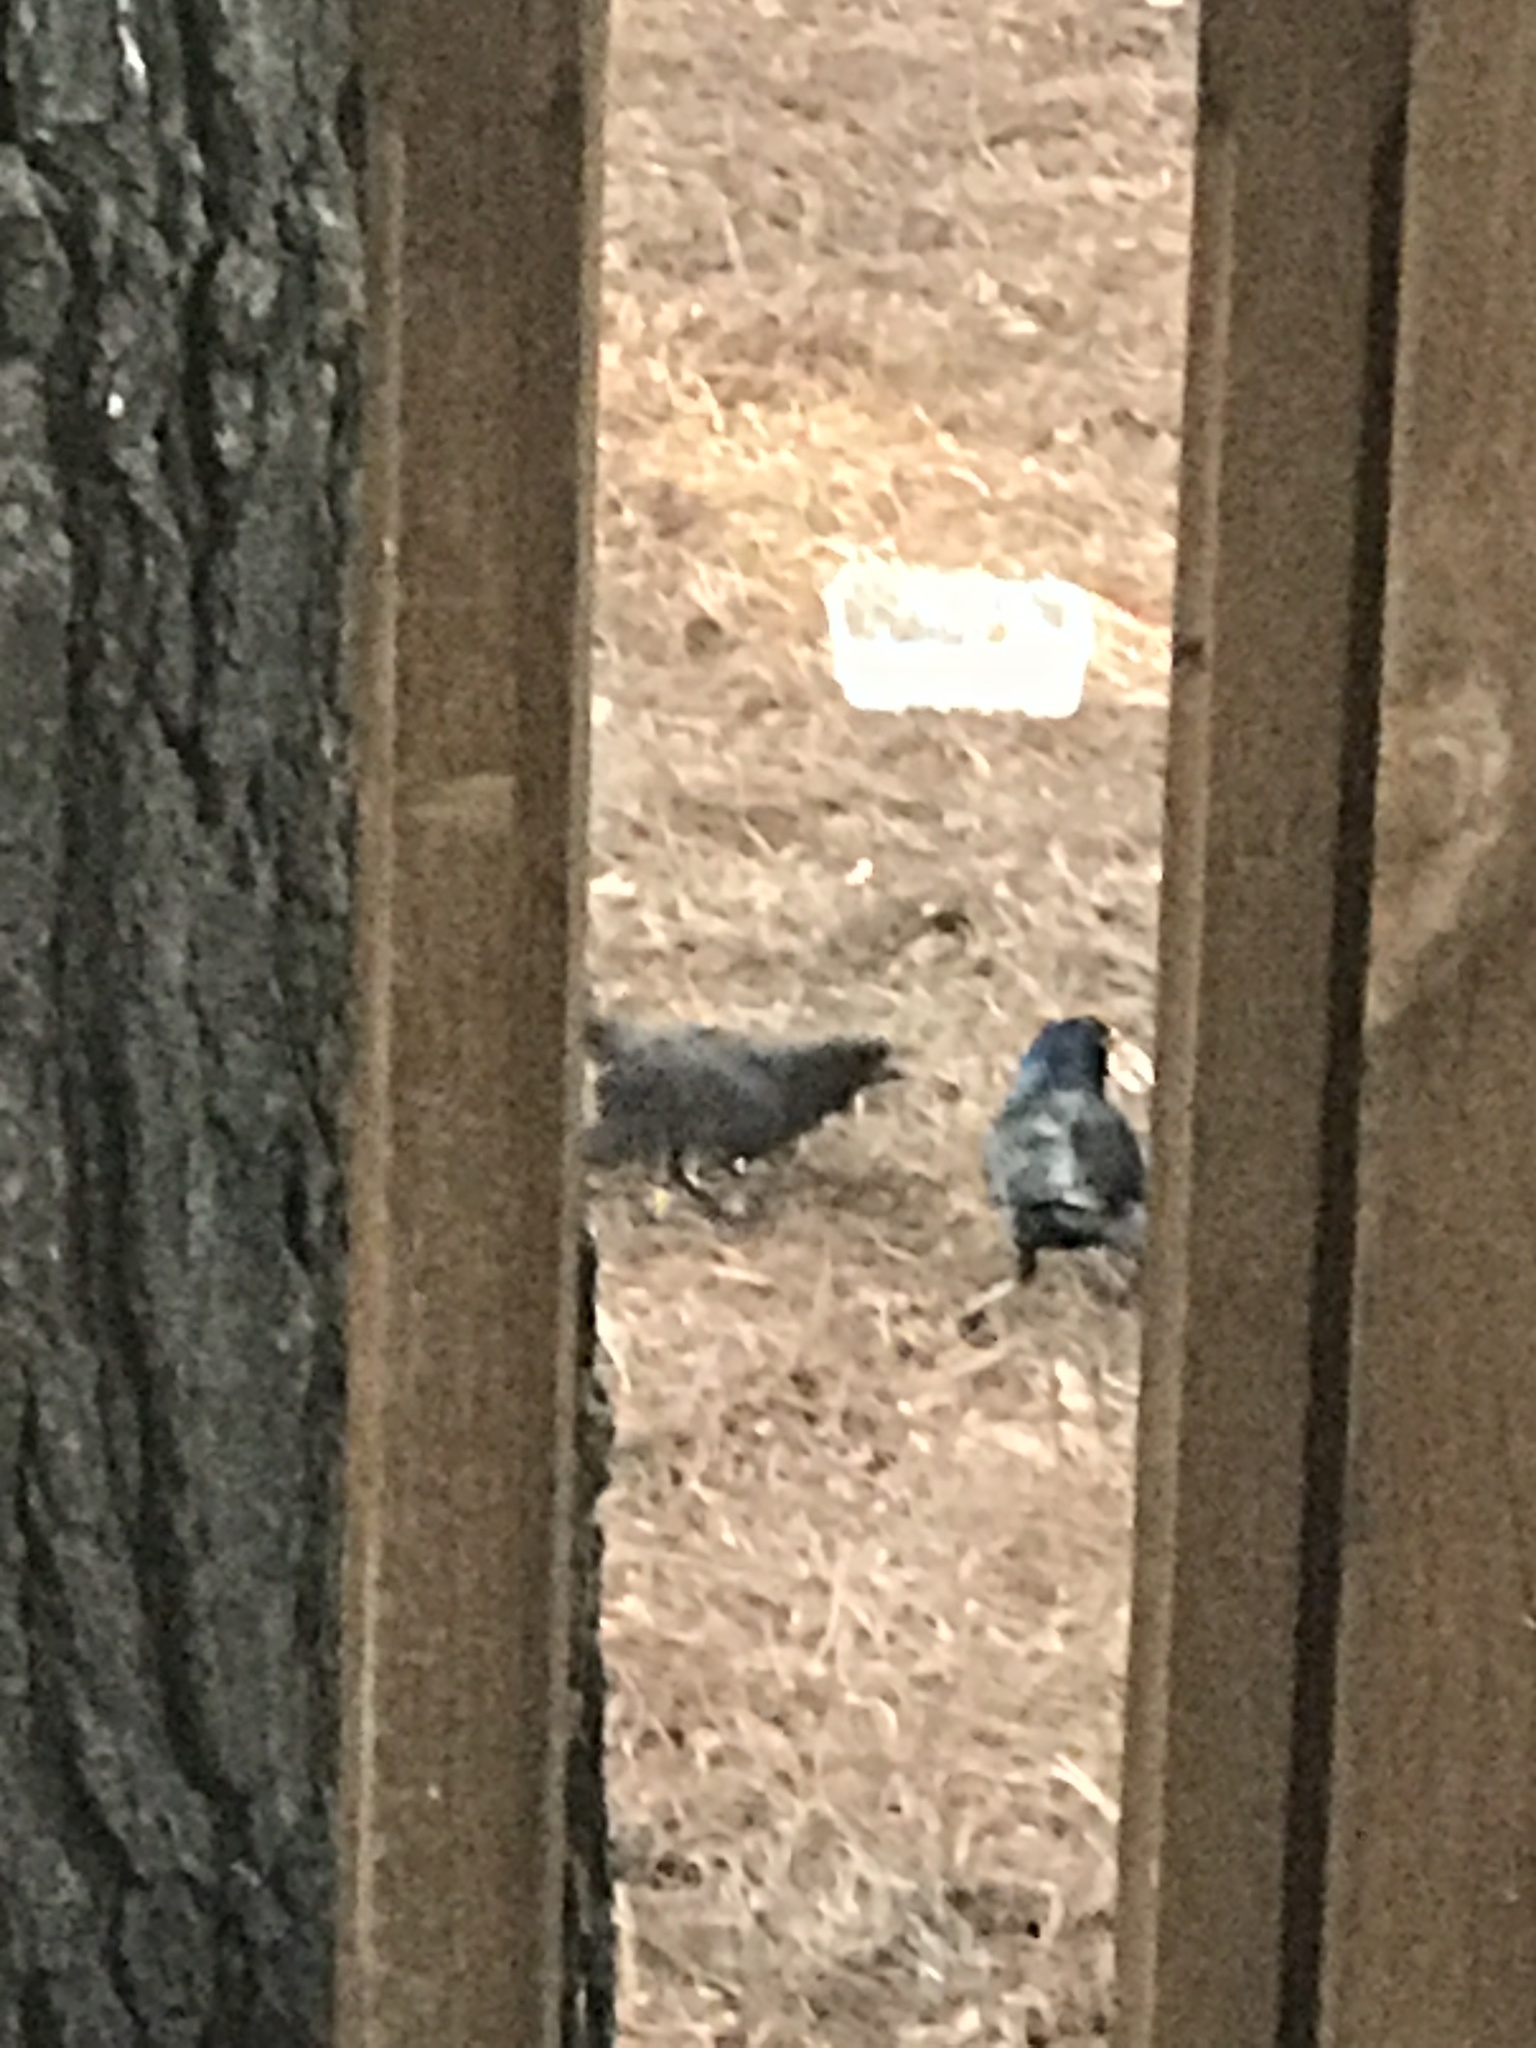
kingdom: Animalia
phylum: Chordata
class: Aves
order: Passeriformes
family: Icteridae
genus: Quiscalus
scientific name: Quiscalus quiscula
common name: Common grackle
